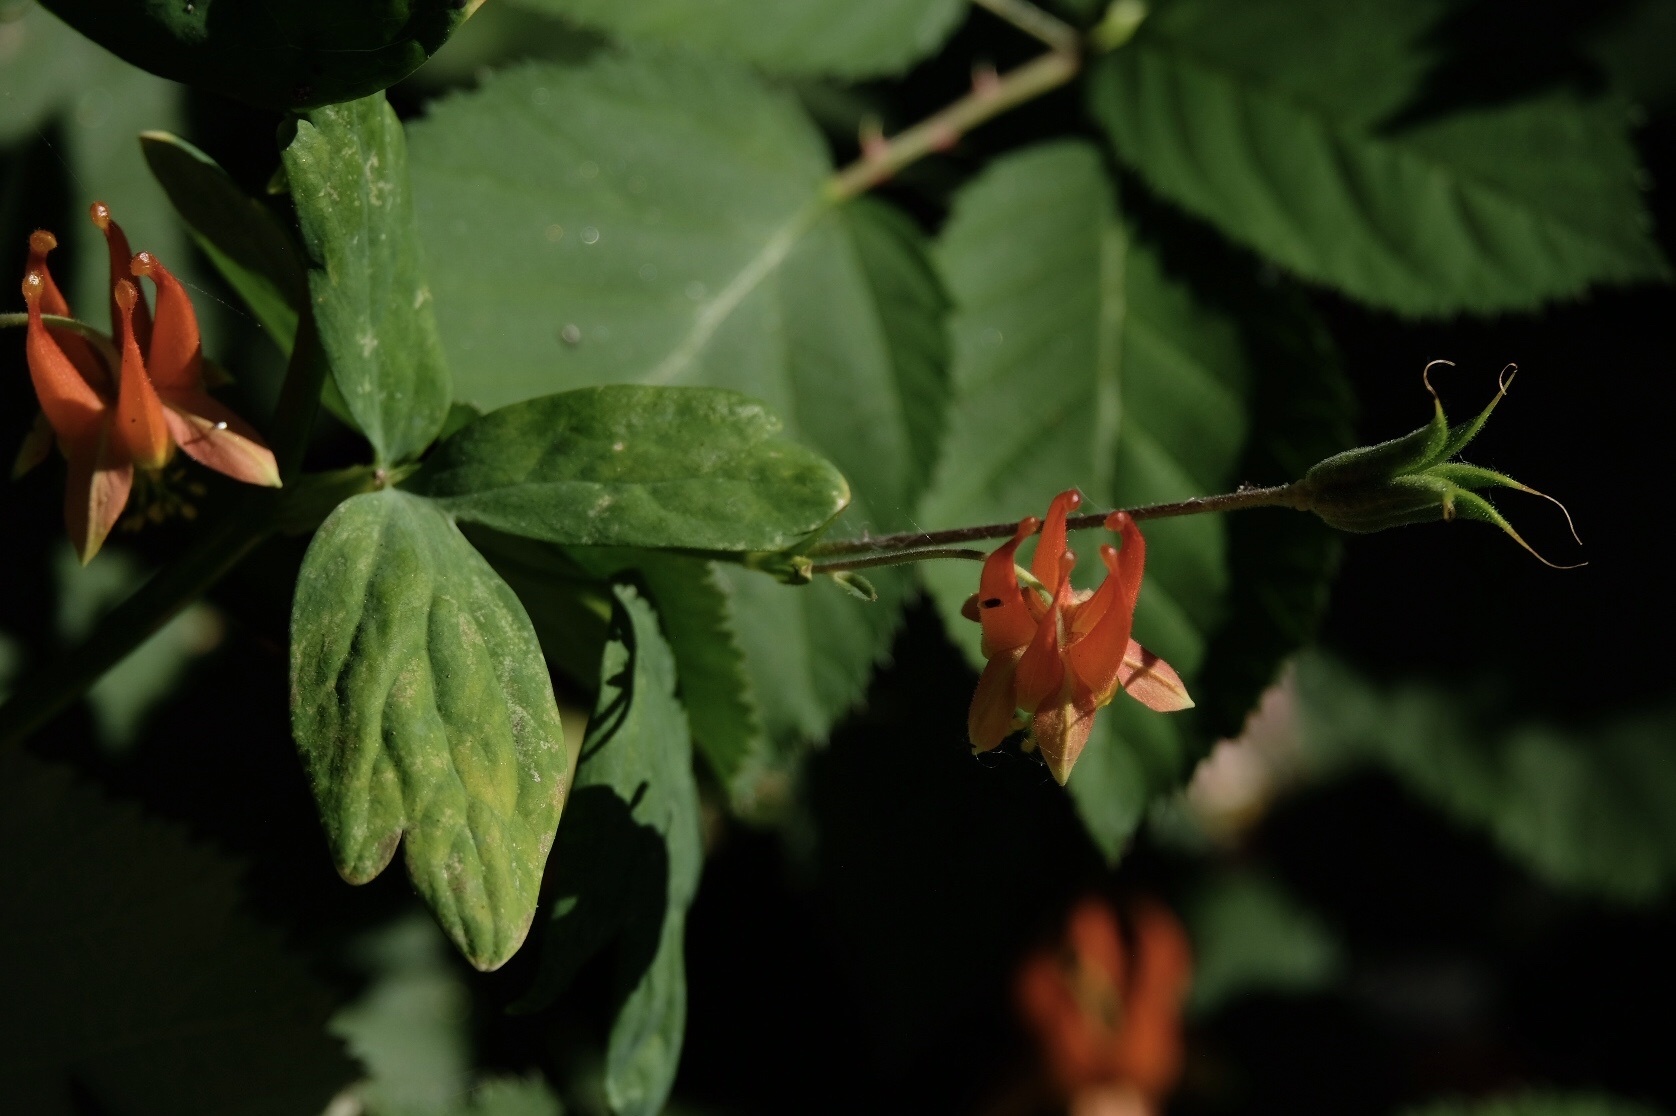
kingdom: Plantae
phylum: Tracheophyta
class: Magnoliopsida
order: Ranunculales
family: Ranunculaceae
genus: Aquilegia
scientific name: Aquilegia formosa
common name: Sitka columbine
